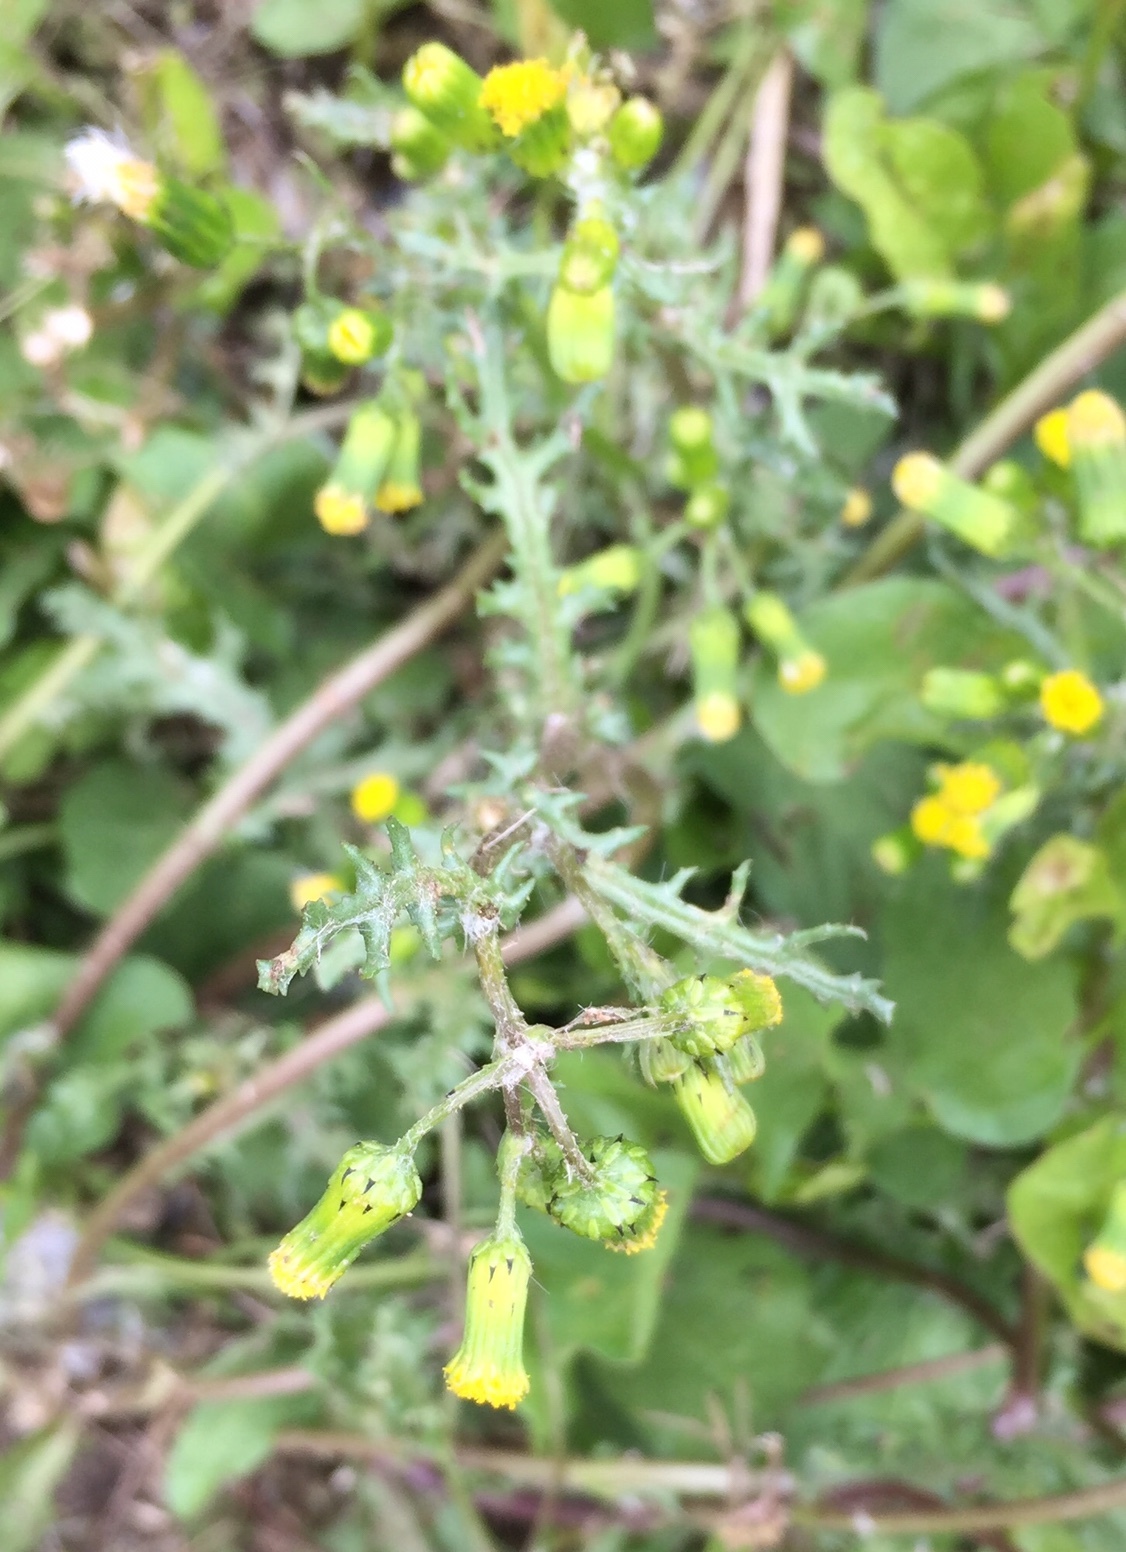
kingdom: Plantae
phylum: Tracheophyta
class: Magnoliopsida
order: Asterales
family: Asteraceae
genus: Senecio
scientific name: Senecio vulgaris
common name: Old-man-in-the-spring
